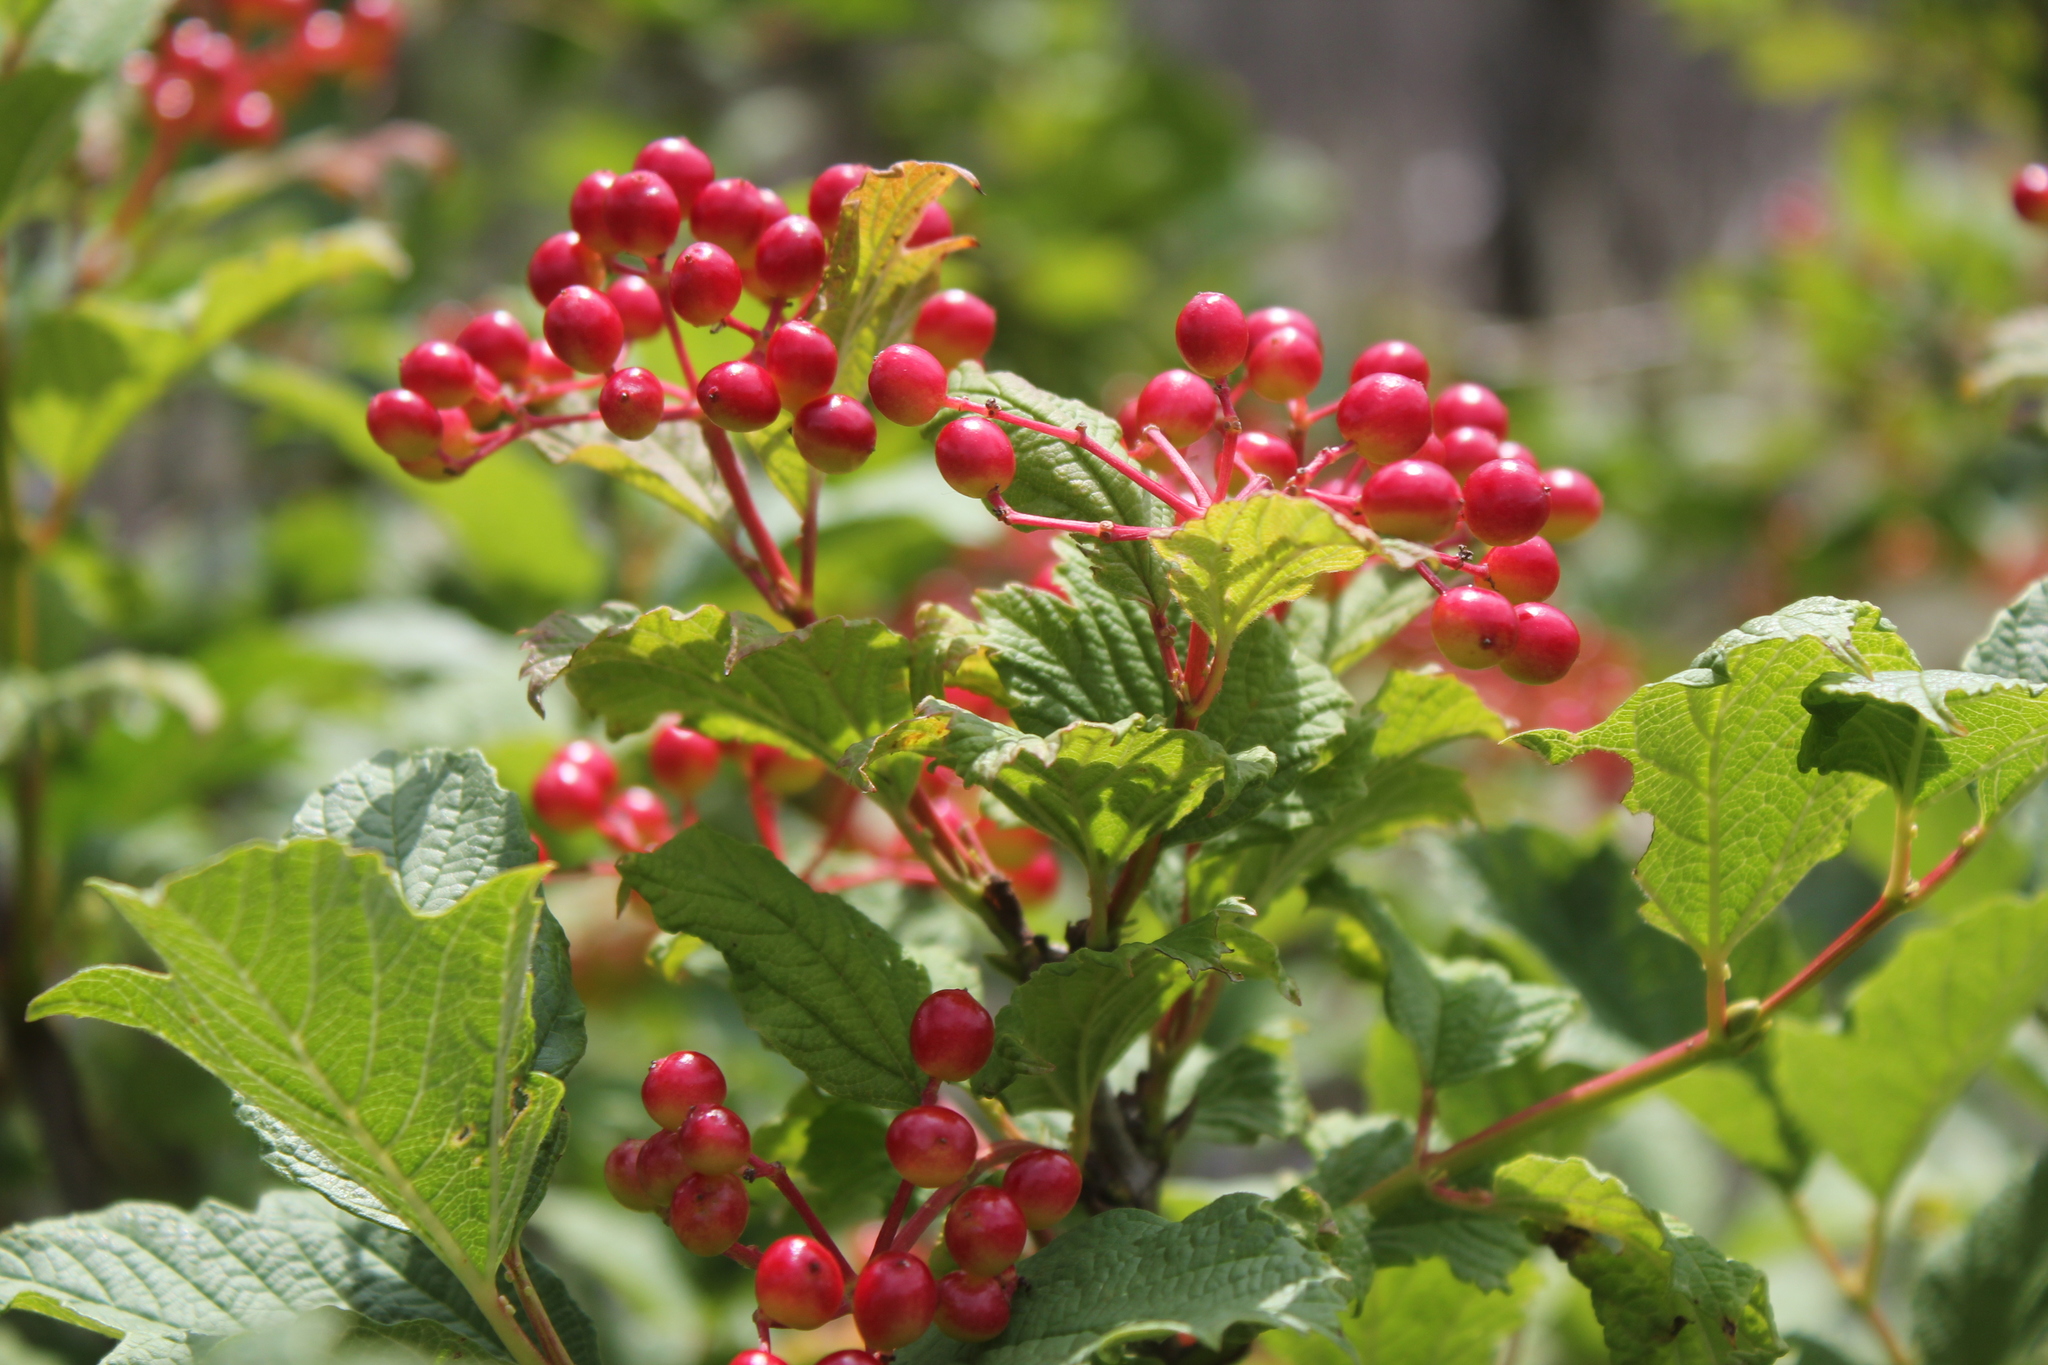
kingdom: Plantae
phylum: Tracheophyta
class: Magnoliopsida
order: Dipsacales
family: Viburnaceae
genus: Viburnum
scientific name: Viburnum opulus
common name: Guelder-rose
